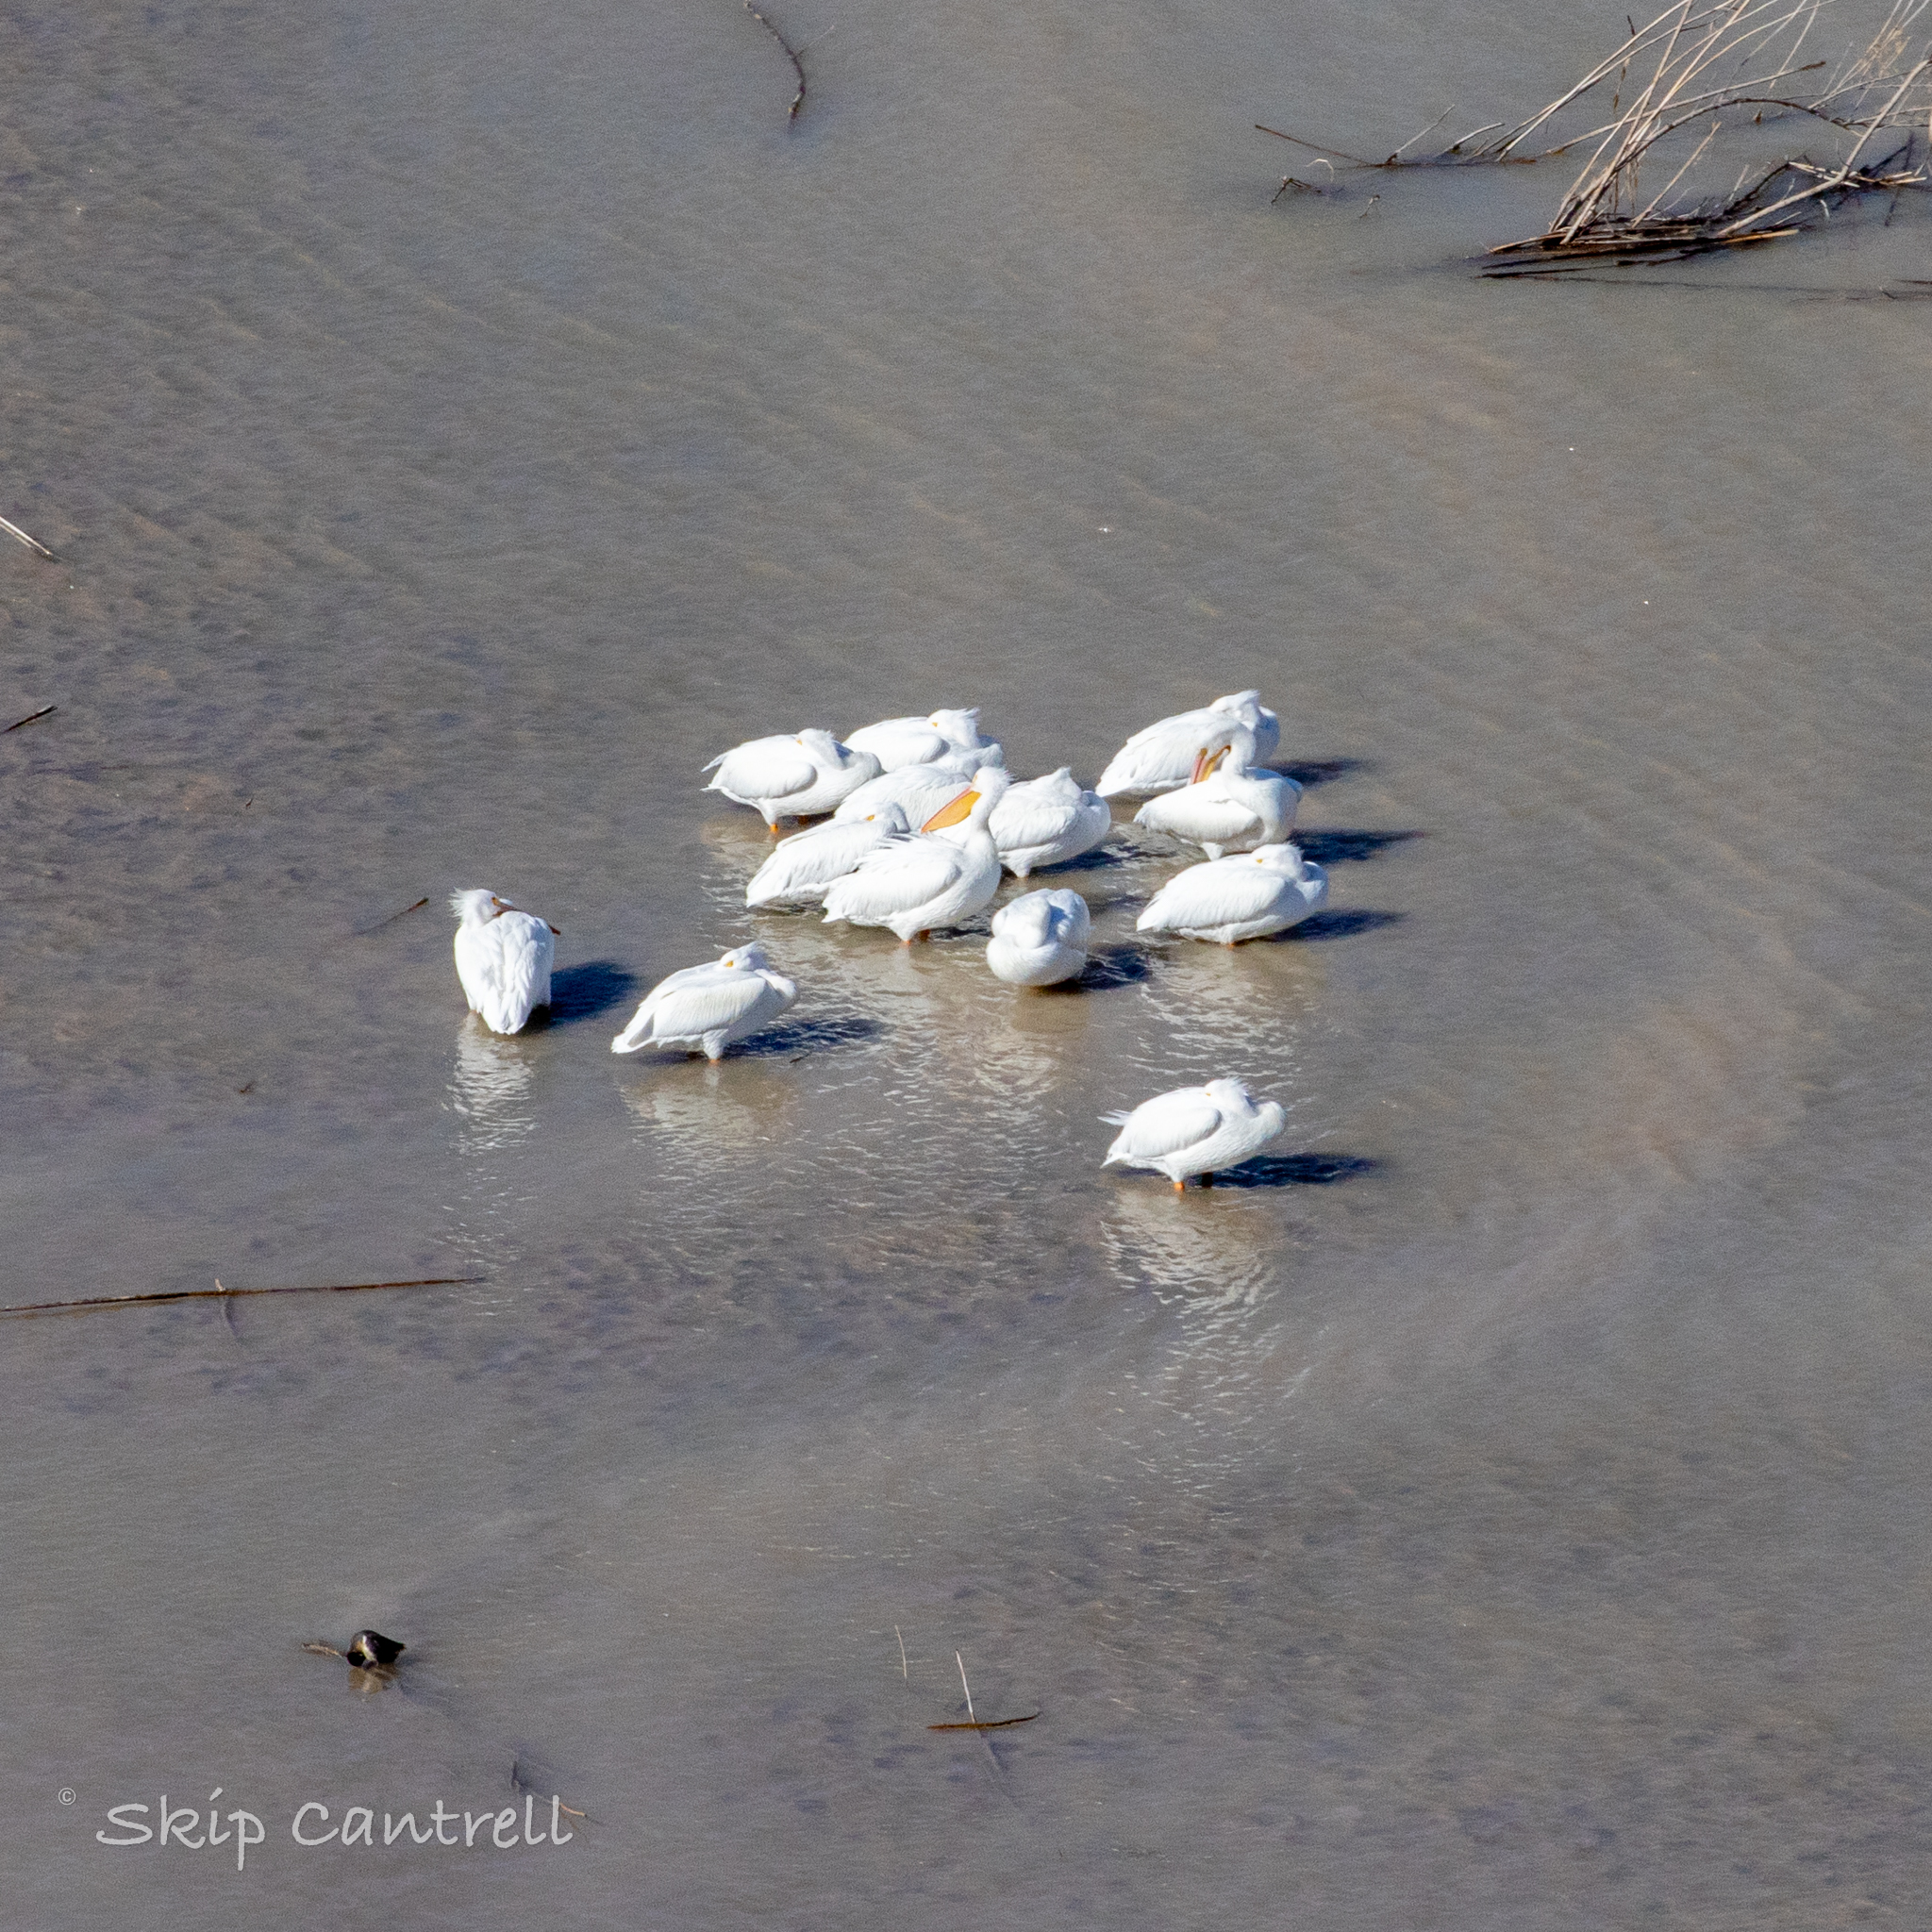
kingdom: Animalia
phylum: Chordata
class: Aves
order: Pelecaniformes
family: Pelecanidae
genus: Pelecanus
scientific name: Pelecanus erythrorhynchos
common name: American white pelican
